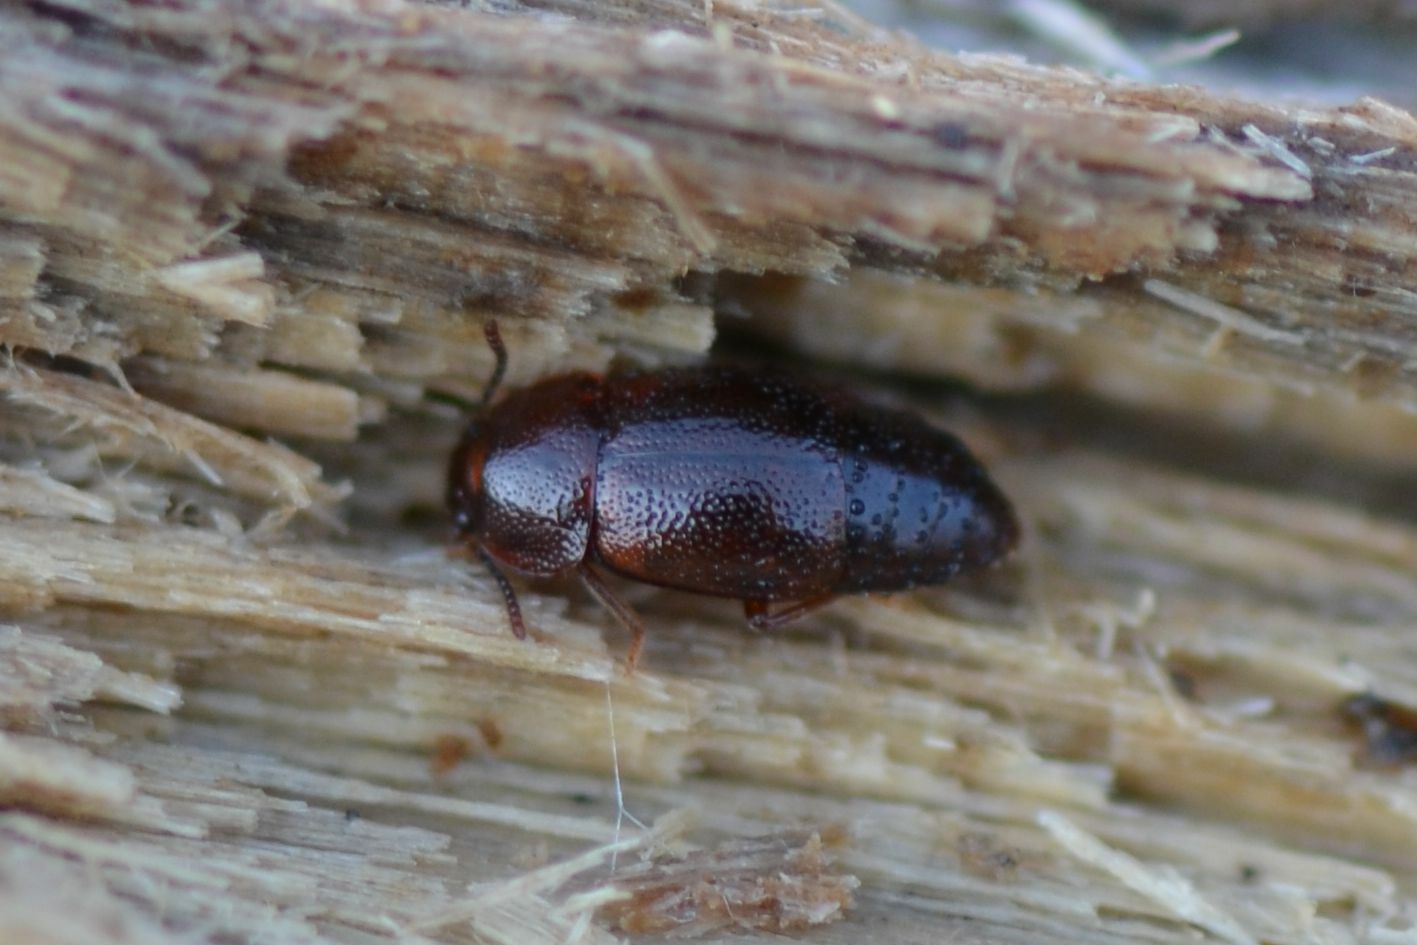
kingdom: Animalia
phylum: Arthropoda
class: Insecta
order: Coleoptera
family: Staphylinidae
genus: Olophrum
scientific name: Olophrum piceum
